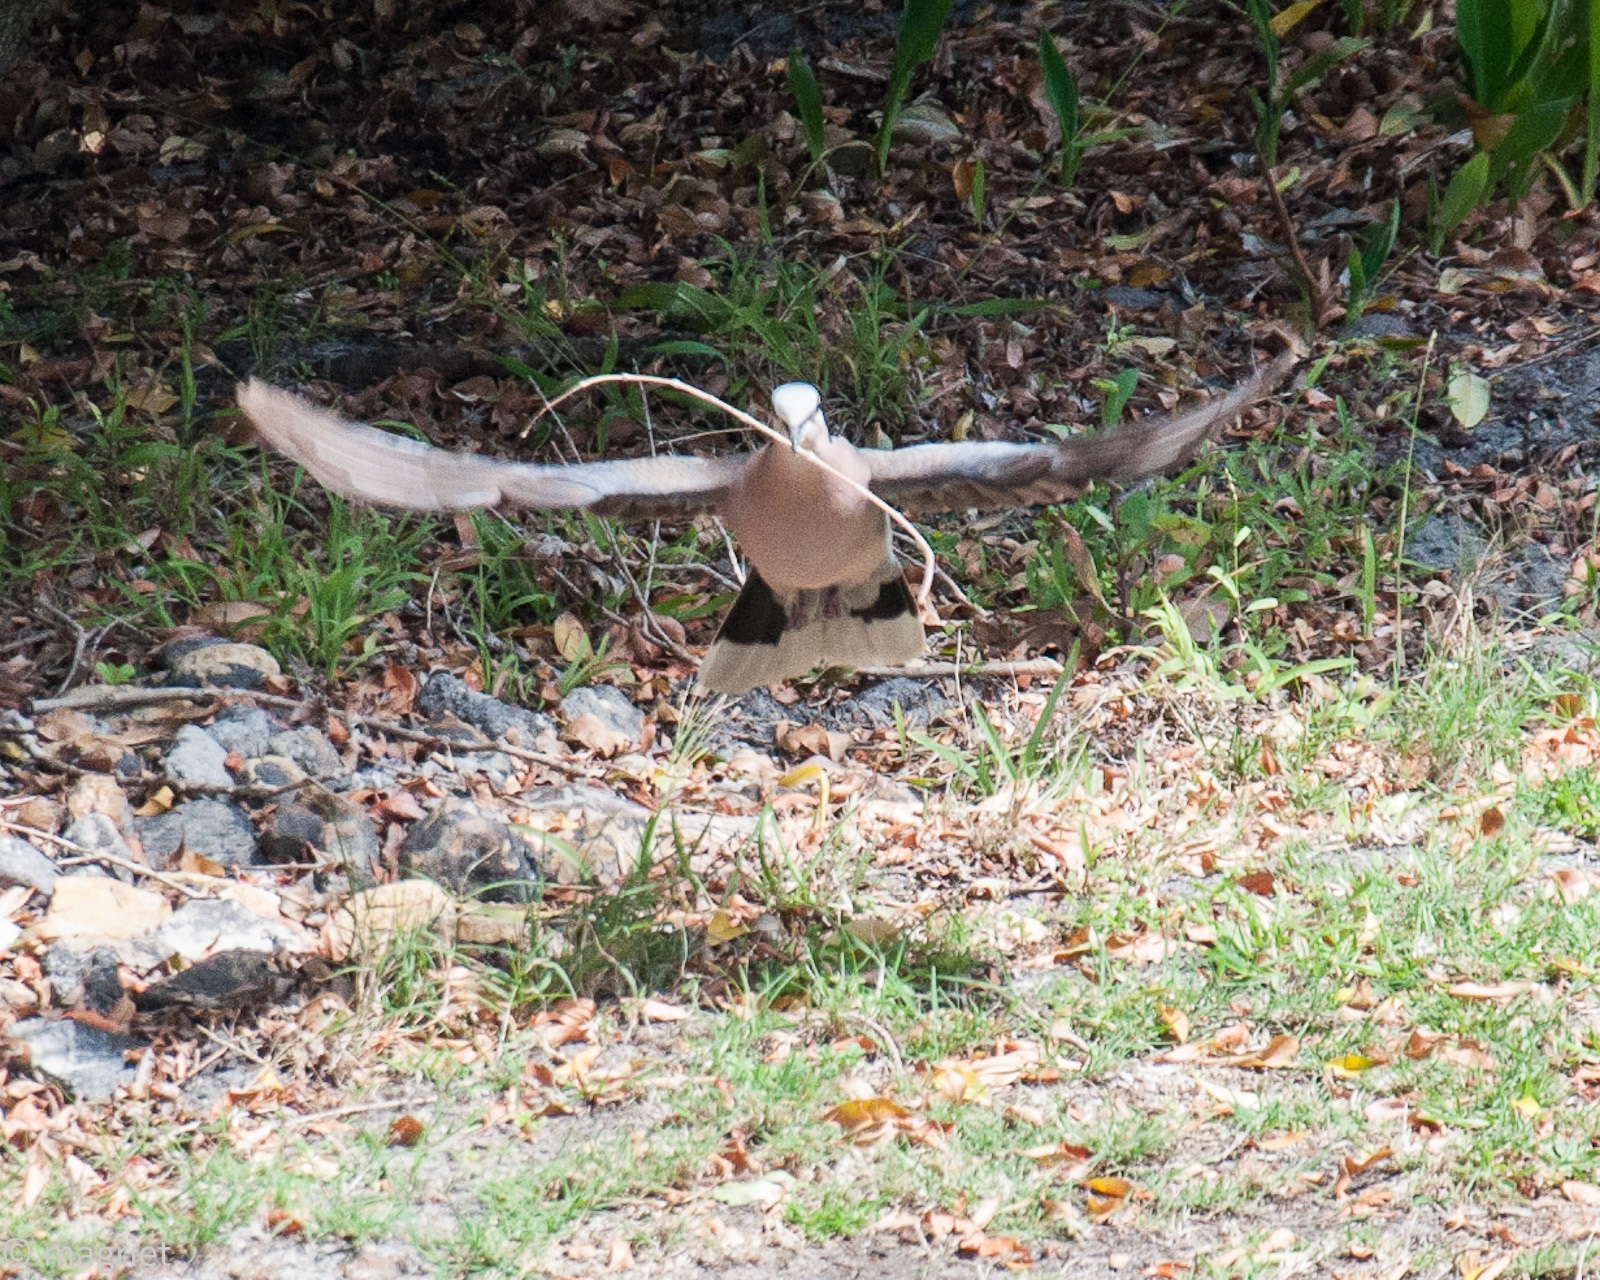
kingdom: Animalia
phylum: Chordata
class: Aves
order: Columbiformes
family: Columbidae
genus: Streptopelia
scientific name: Streptopelia semitorquata
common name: Red-eyed dove
